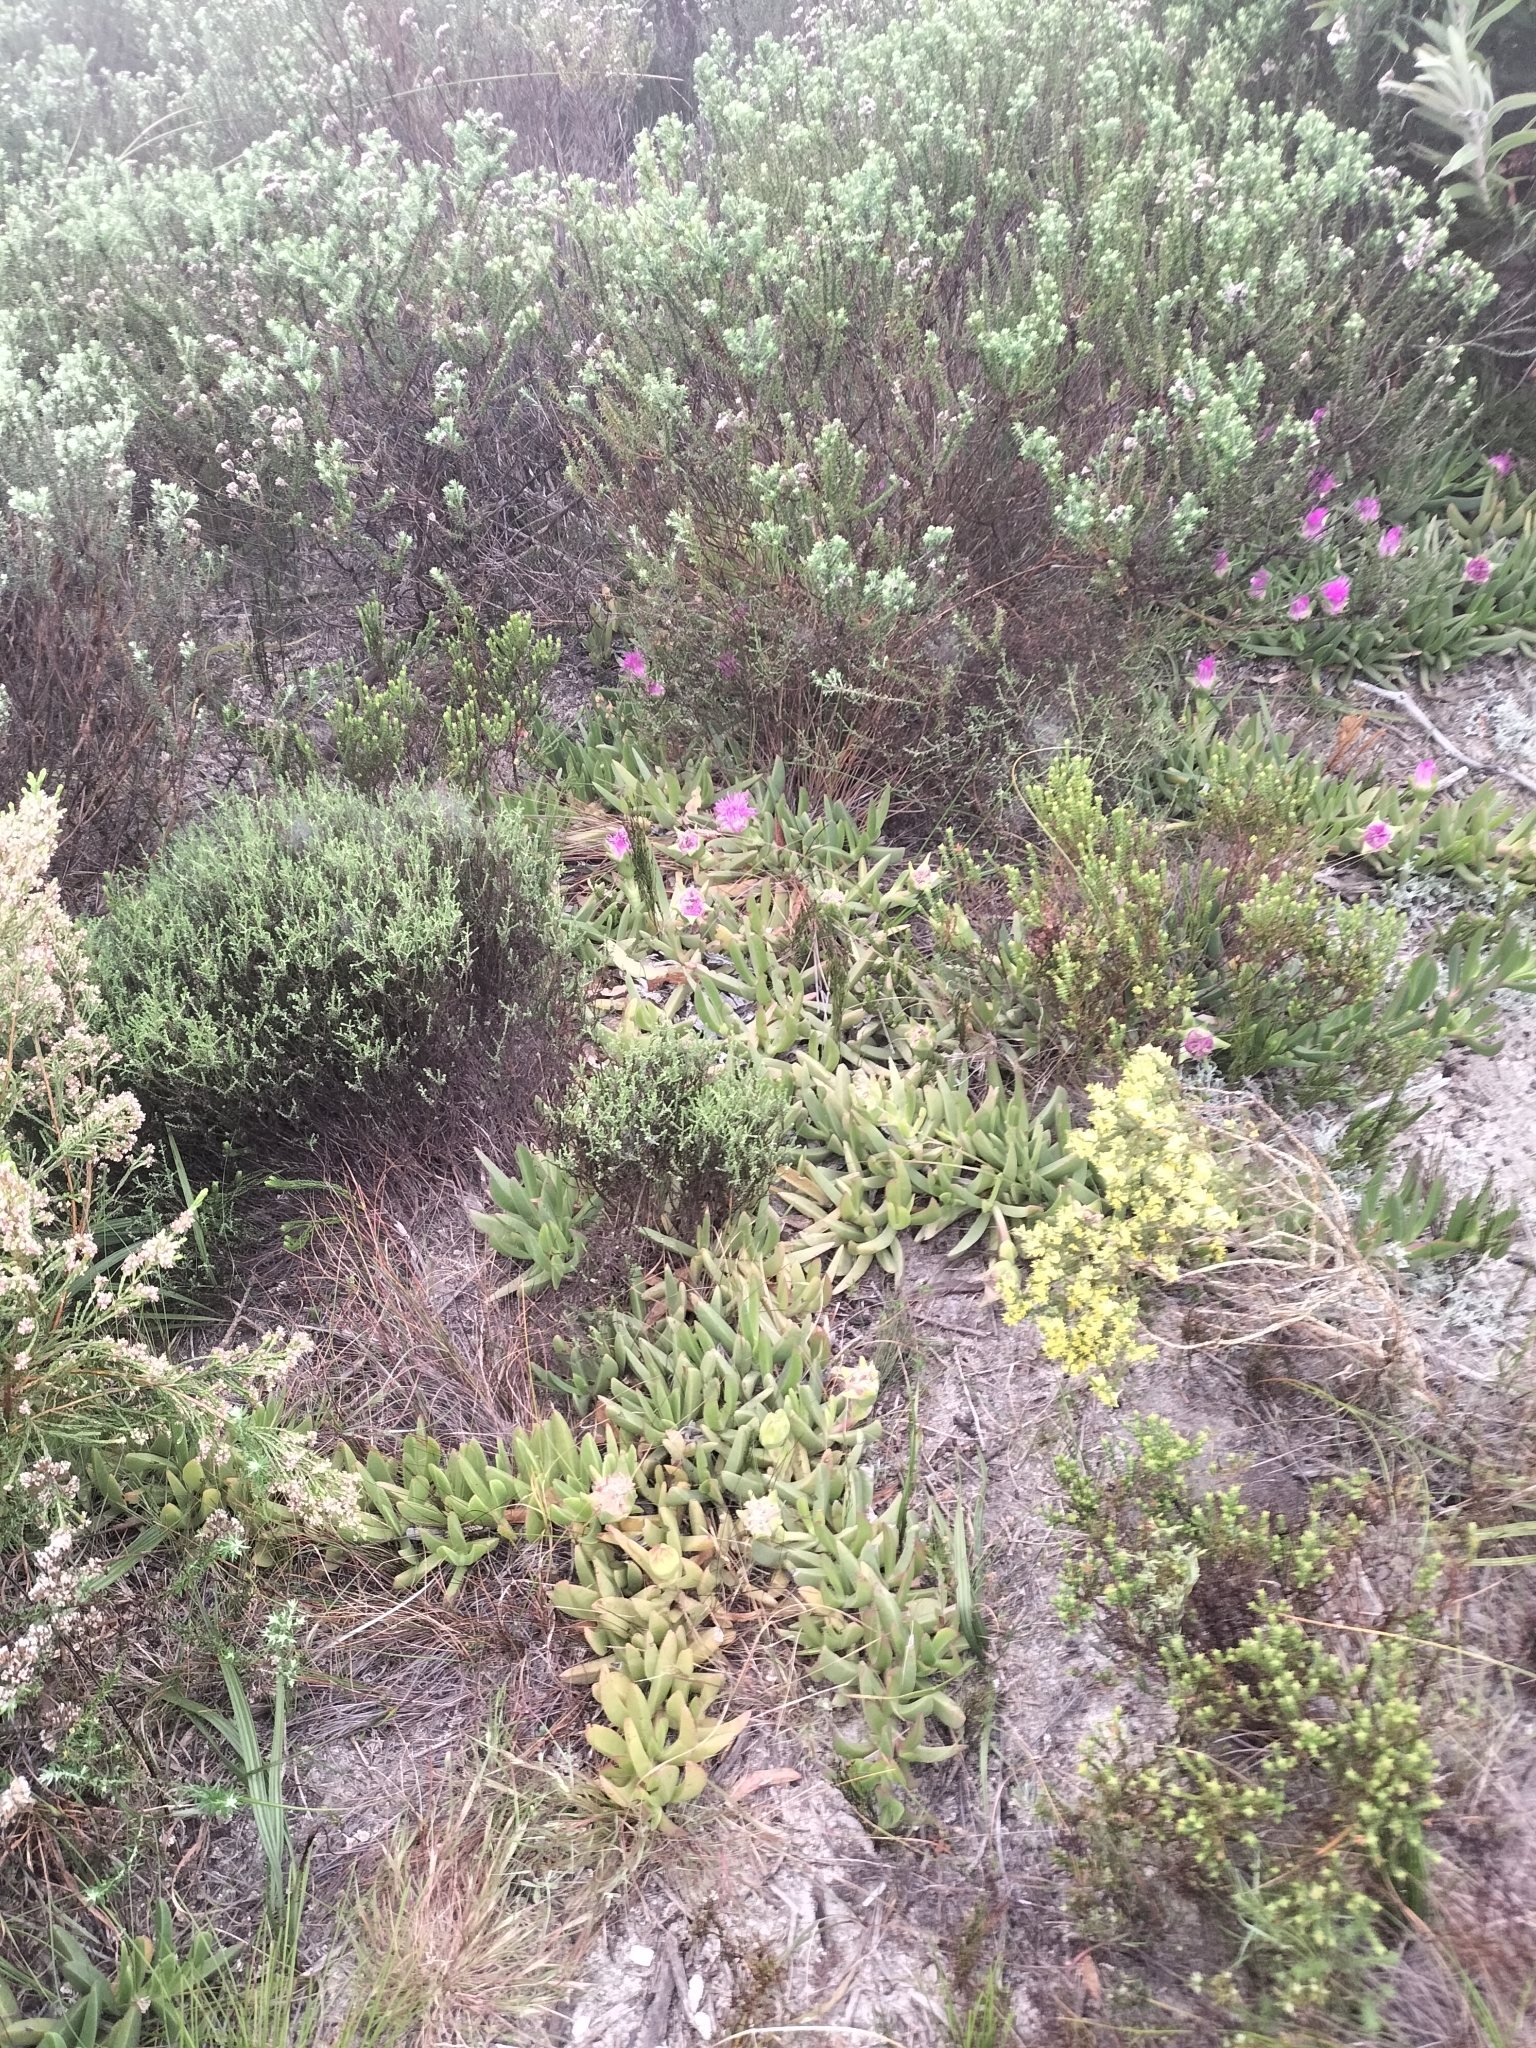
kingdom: Plantae
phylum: Tracheophyta
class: Magnoliopsida
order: Caryophyllales
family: Aizoaceae
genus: Carpobrotus
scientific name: Carpobrotus acinaciformis
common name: Sally-my-handsome
